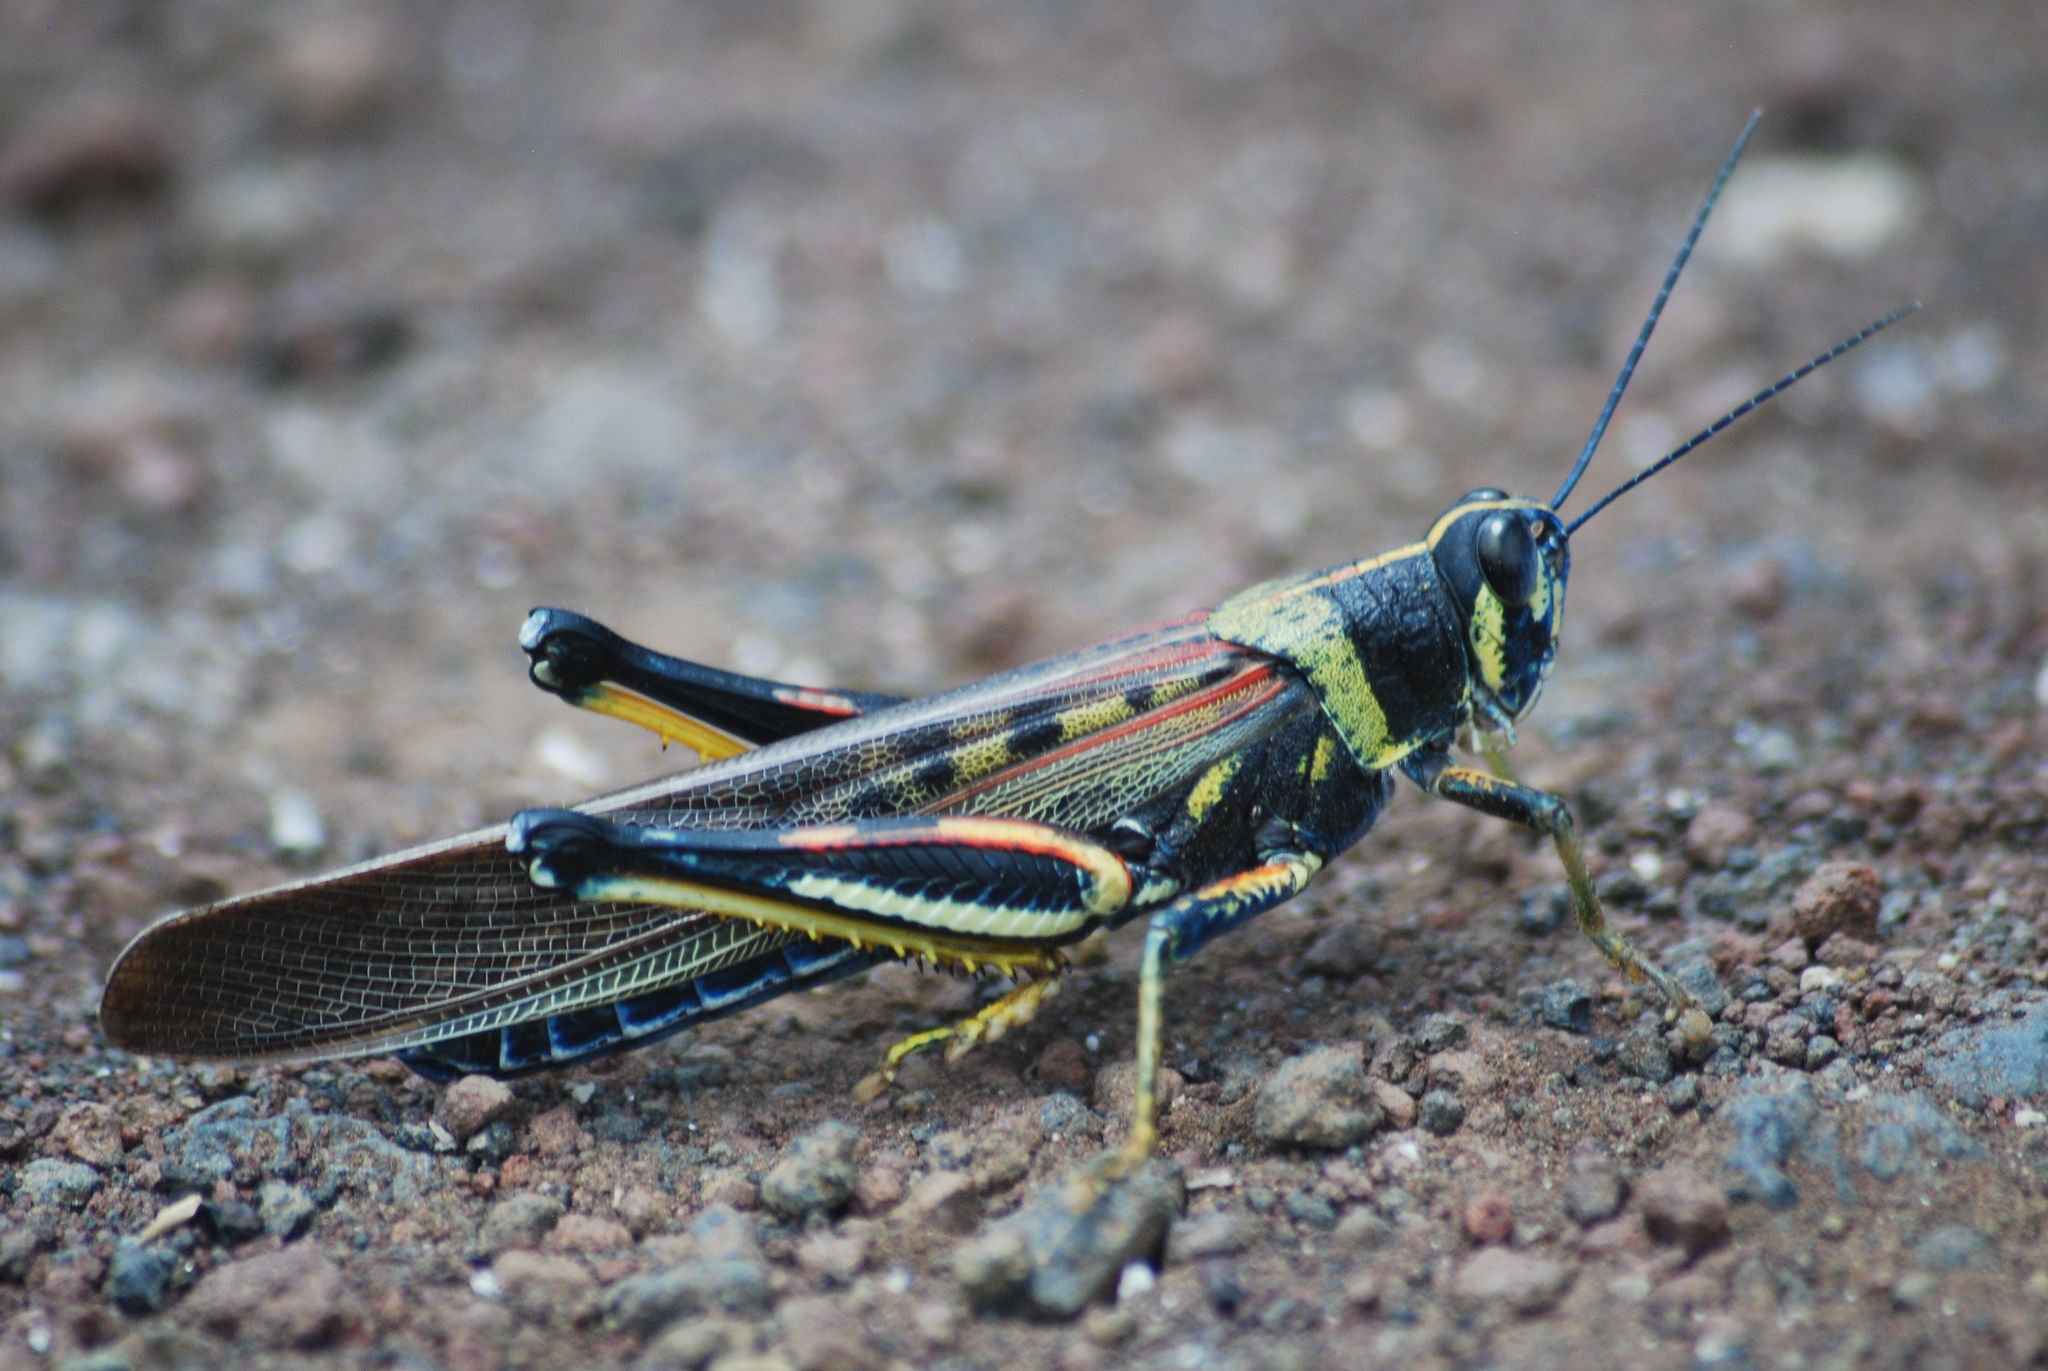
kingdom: Animalia
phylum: Arthropoda
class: Insecta
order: Orthoptera
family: Acrididae
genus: Schistocerca
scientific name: Schistocerca melanocera
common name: Large painted locust
